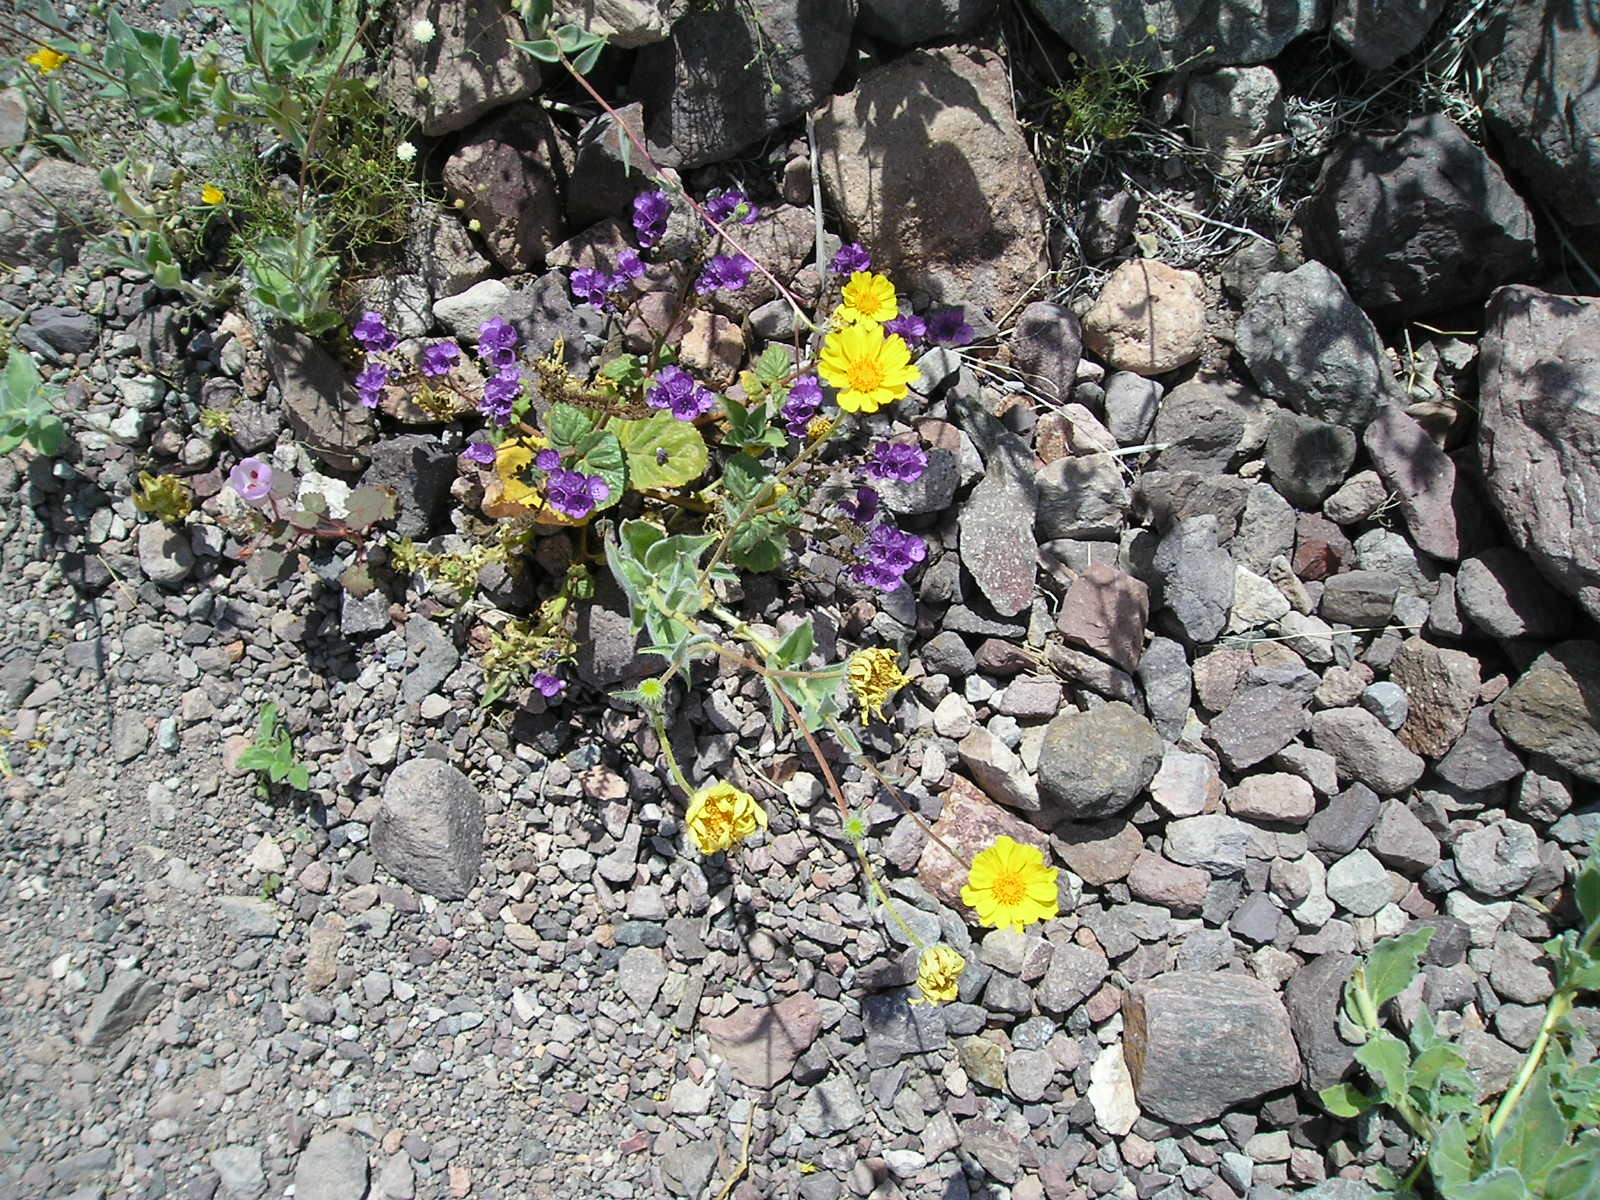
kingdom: Plantae
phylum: Tracheophyta
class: Magnoliopsida
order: Boraginales
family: Hydrophyllaceae
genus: Phacelia
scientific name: Phacelia calthifolia
